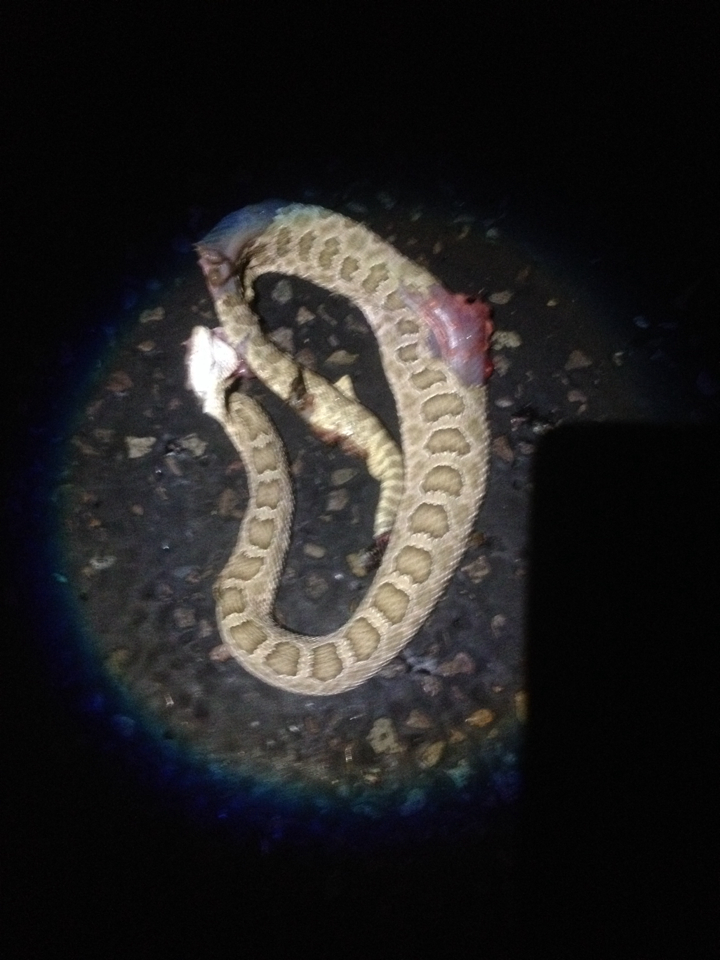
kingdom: Animalia
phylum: Chordata
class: Squamata
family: Viperidae
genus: Crotalus
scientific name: Crotalus viridis
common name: Prairie rattlesnake
